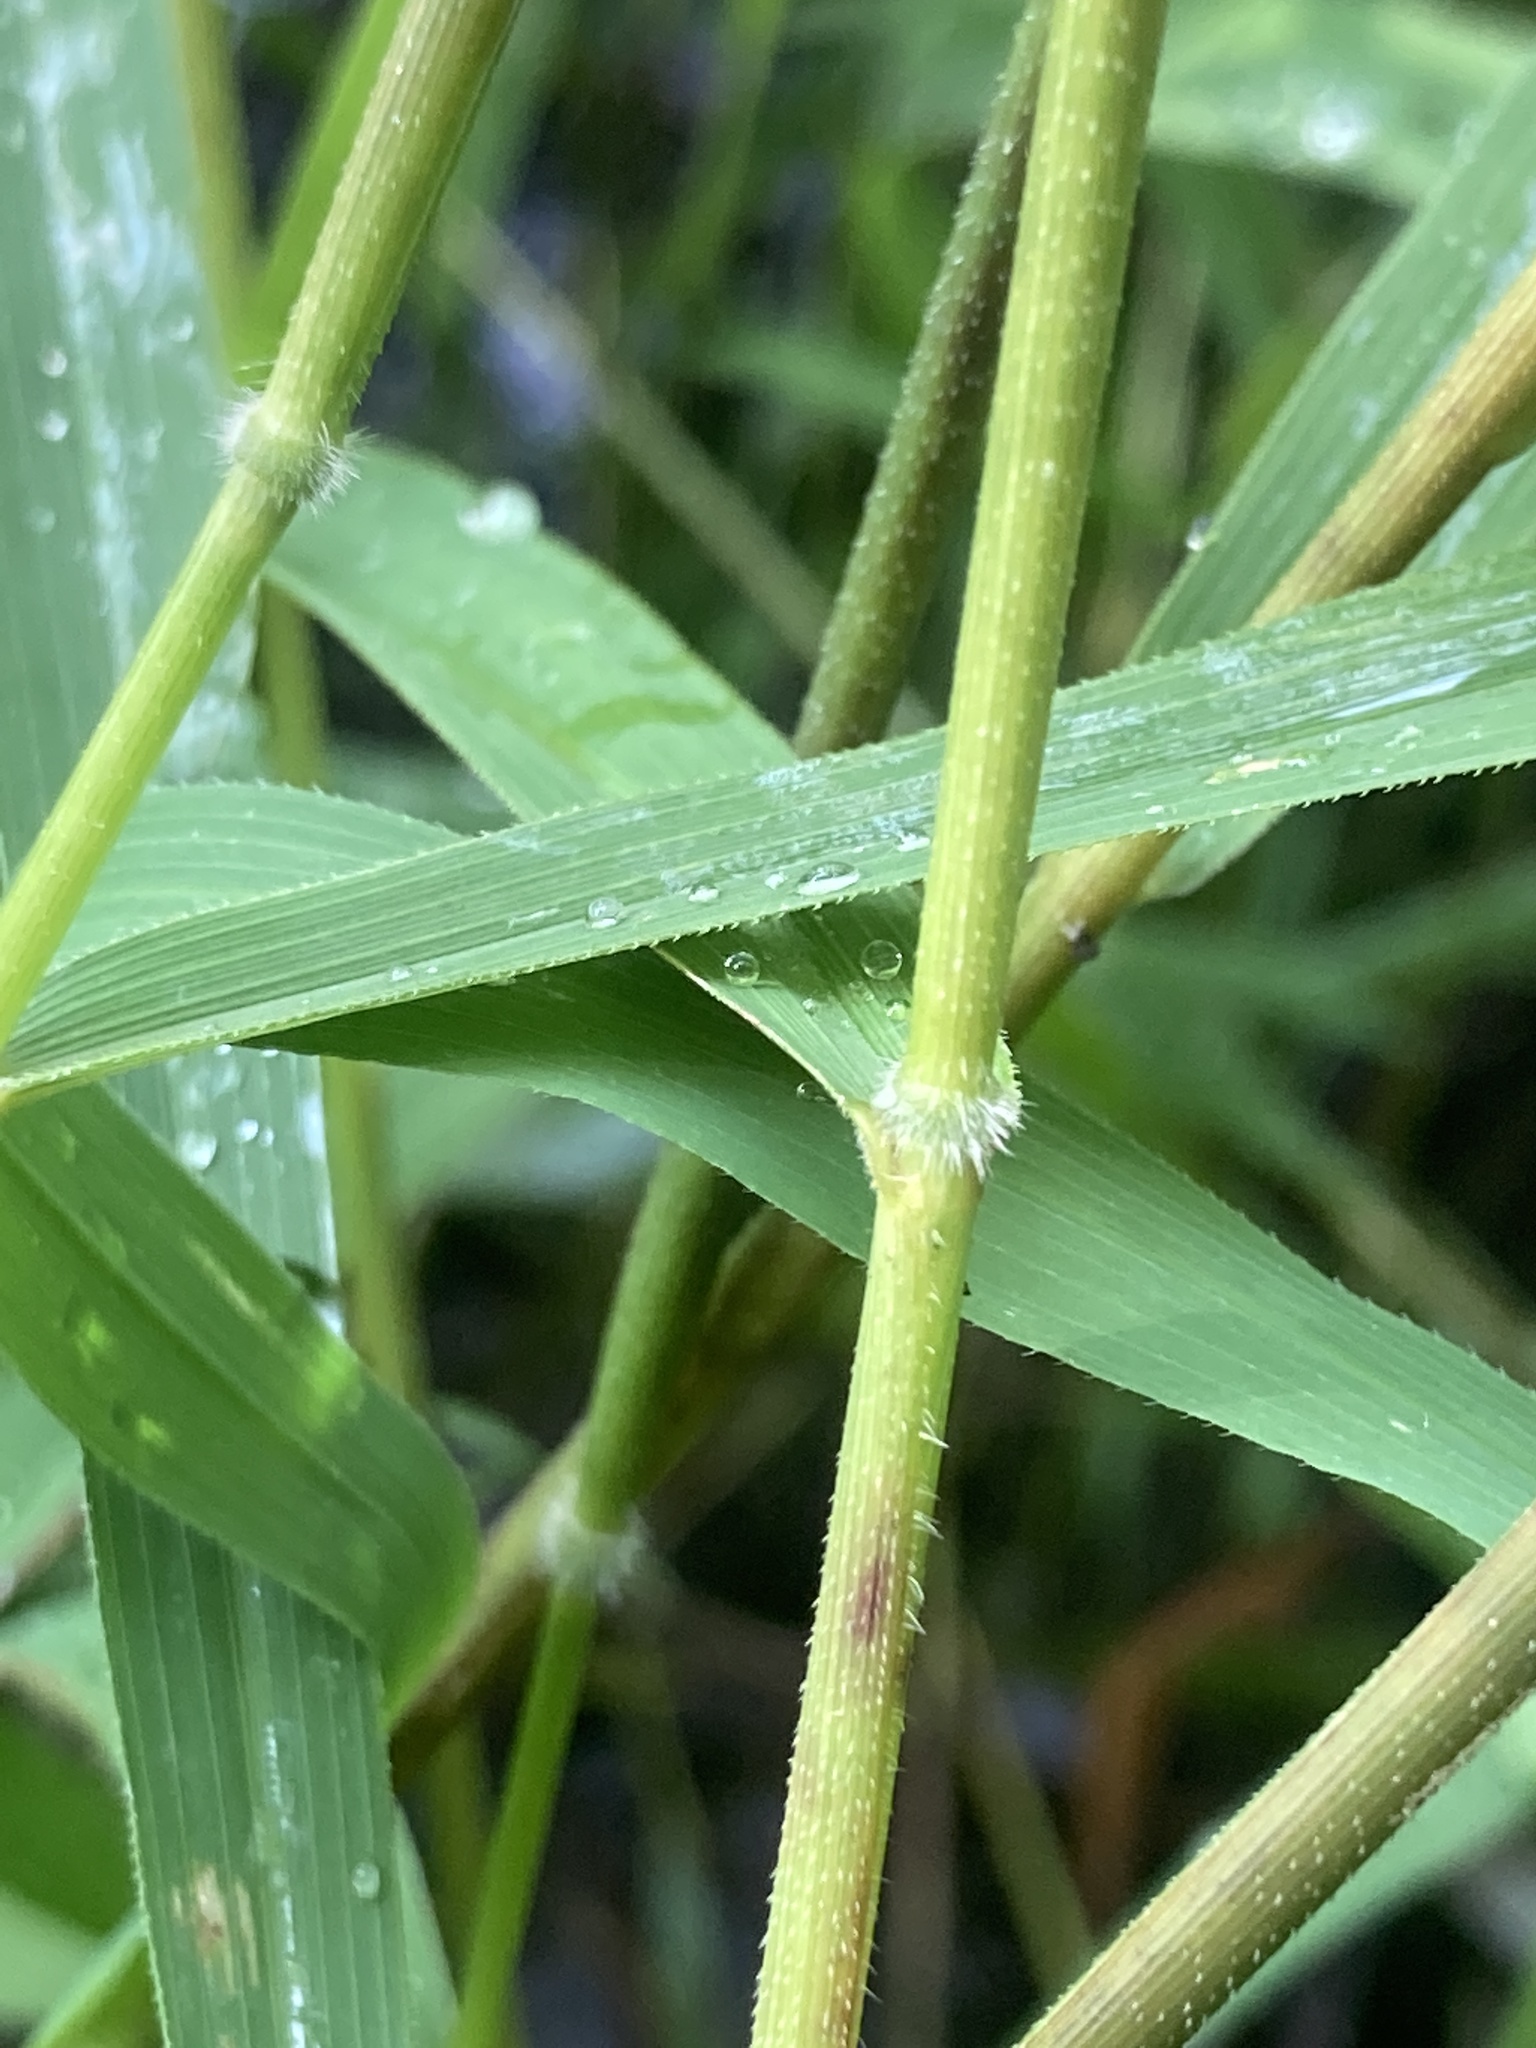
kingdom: Plantae
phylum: Tracheophyta
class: Liliopsida
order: Poales
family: Poaceae
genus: Leersia
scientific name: Leersia oryzoides
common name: Cut-grass
